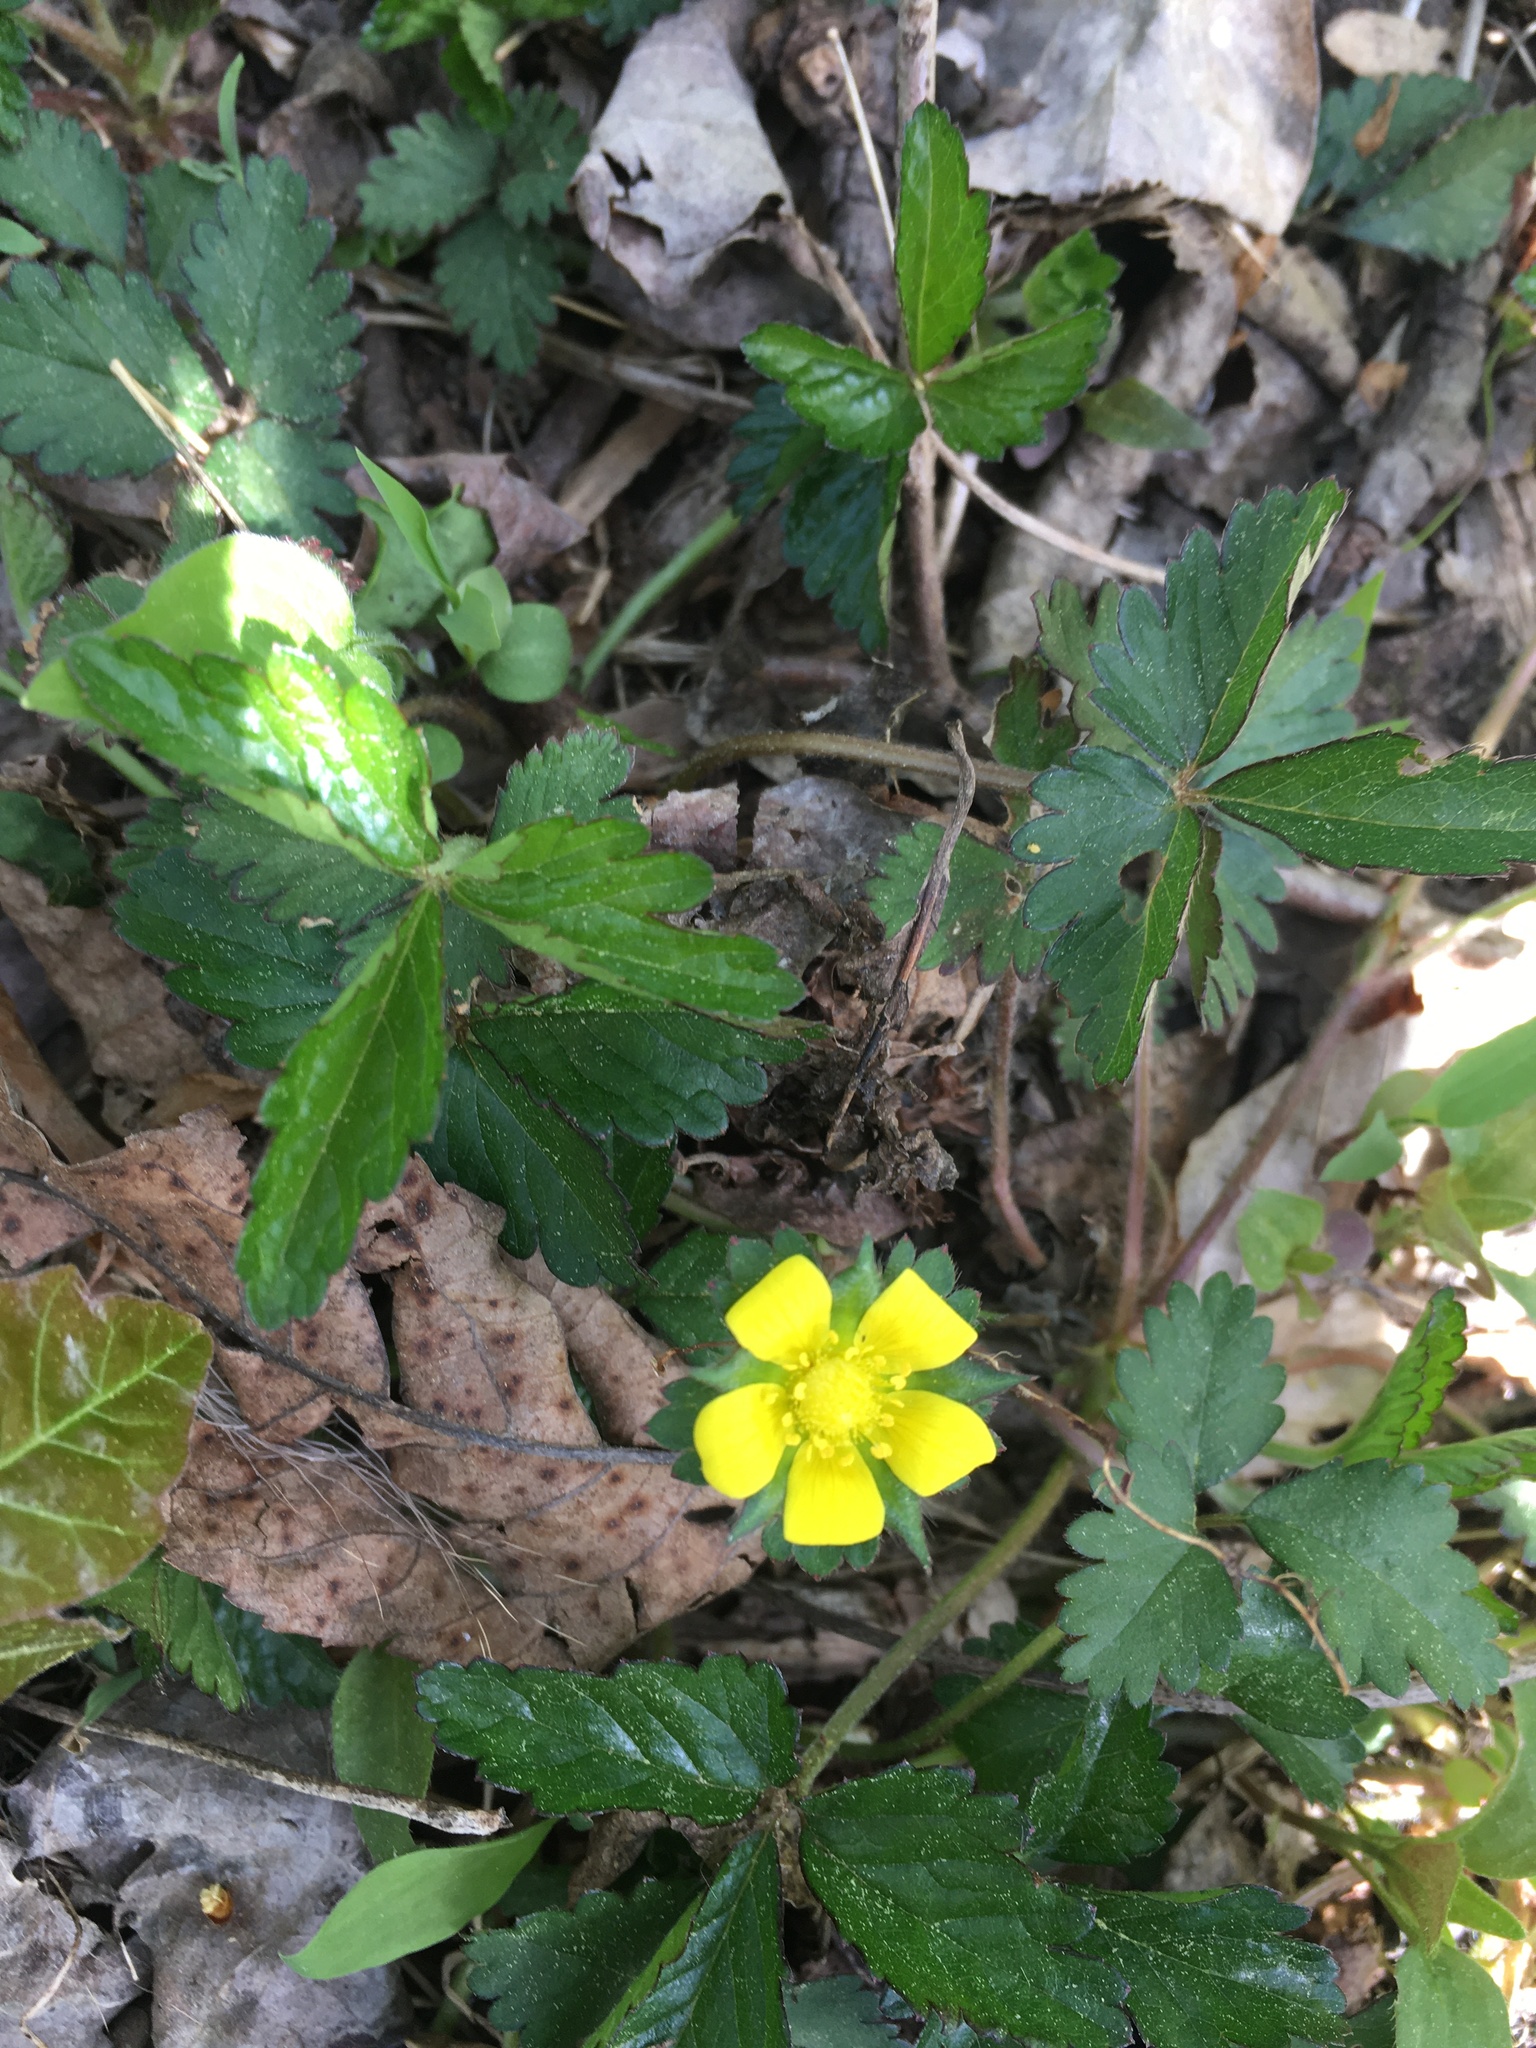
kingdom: Plantae
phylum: Tracheophyta
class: Magnoliopsida
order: Rosales
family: Rosaceae
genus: Potentilla
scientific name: Potentilla indica
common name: Yellow-flowered strawberry
